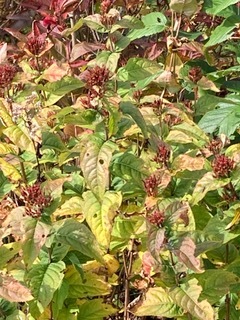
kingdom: Plantae
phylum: Tracheophyta
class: Magnoliopsida
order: Dipsacales
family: Caprifoliaceae
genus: Diervilla
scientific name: Diervilla sessilifolia
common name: Bush-honeysuckle
